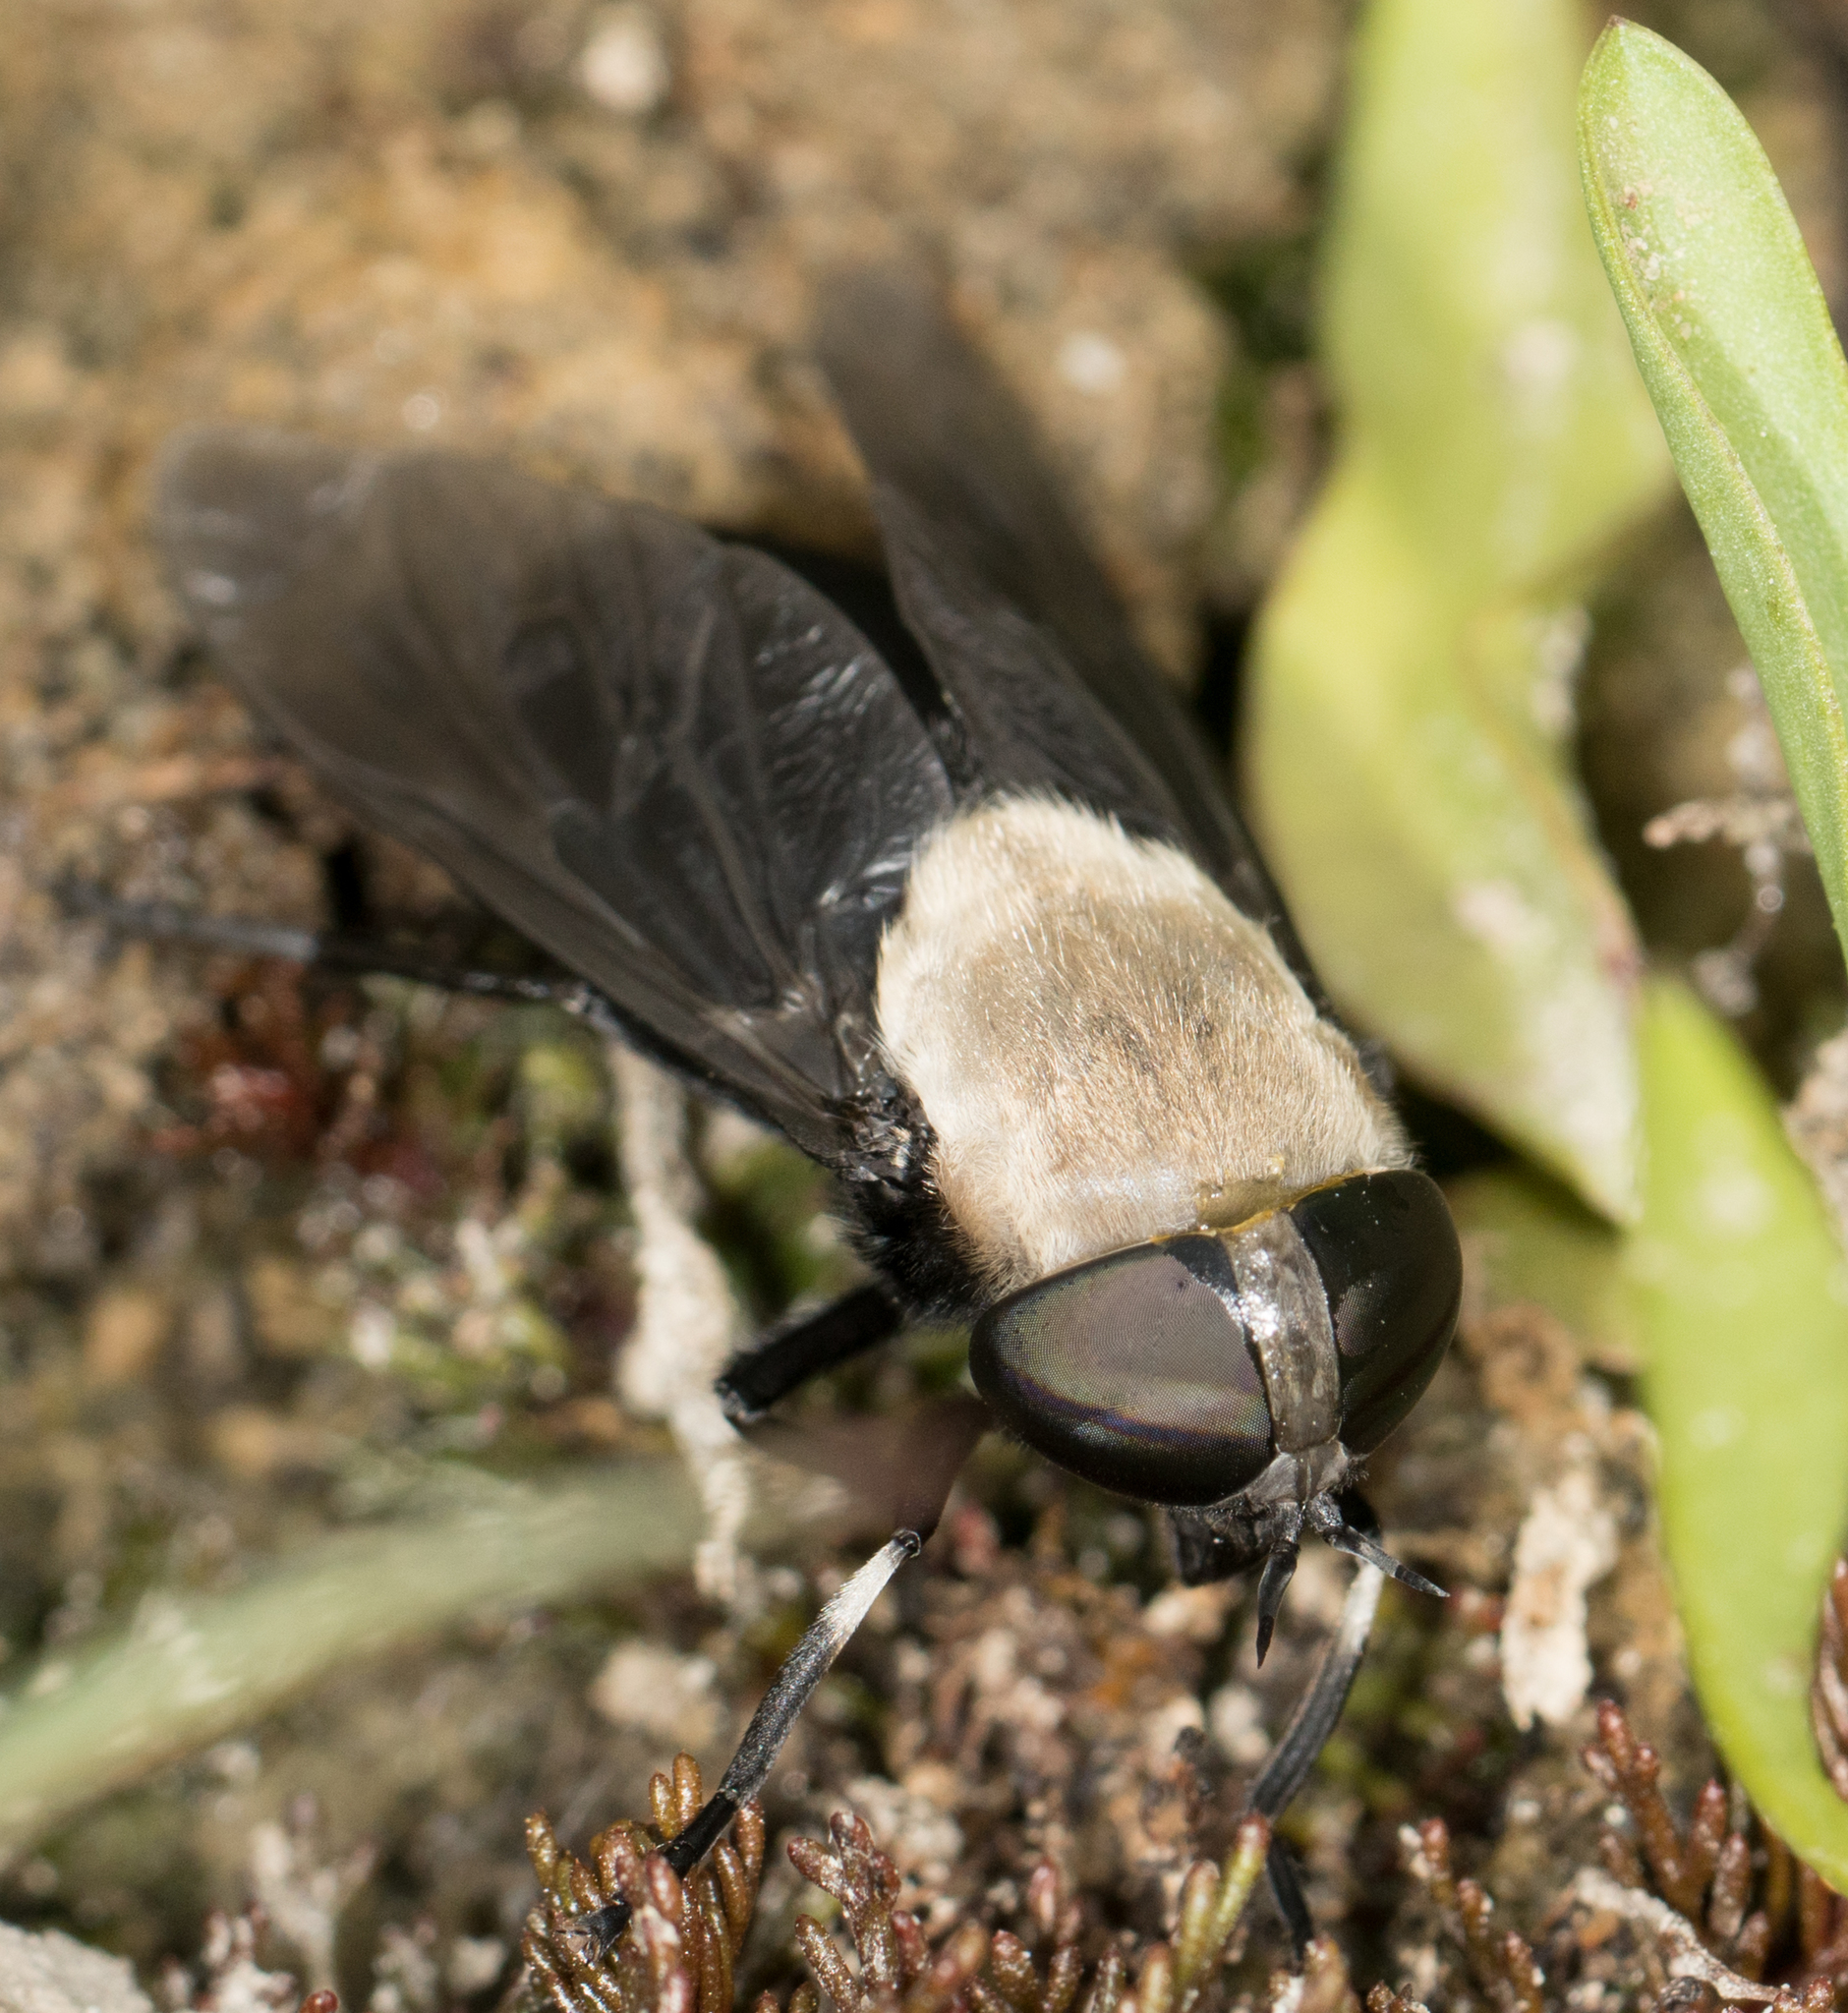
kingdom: Animalia
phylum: Arthropoda
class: Insecta
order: Diptera
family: Tabanidae
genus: Tabanus
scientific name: Tabanus punctifer
